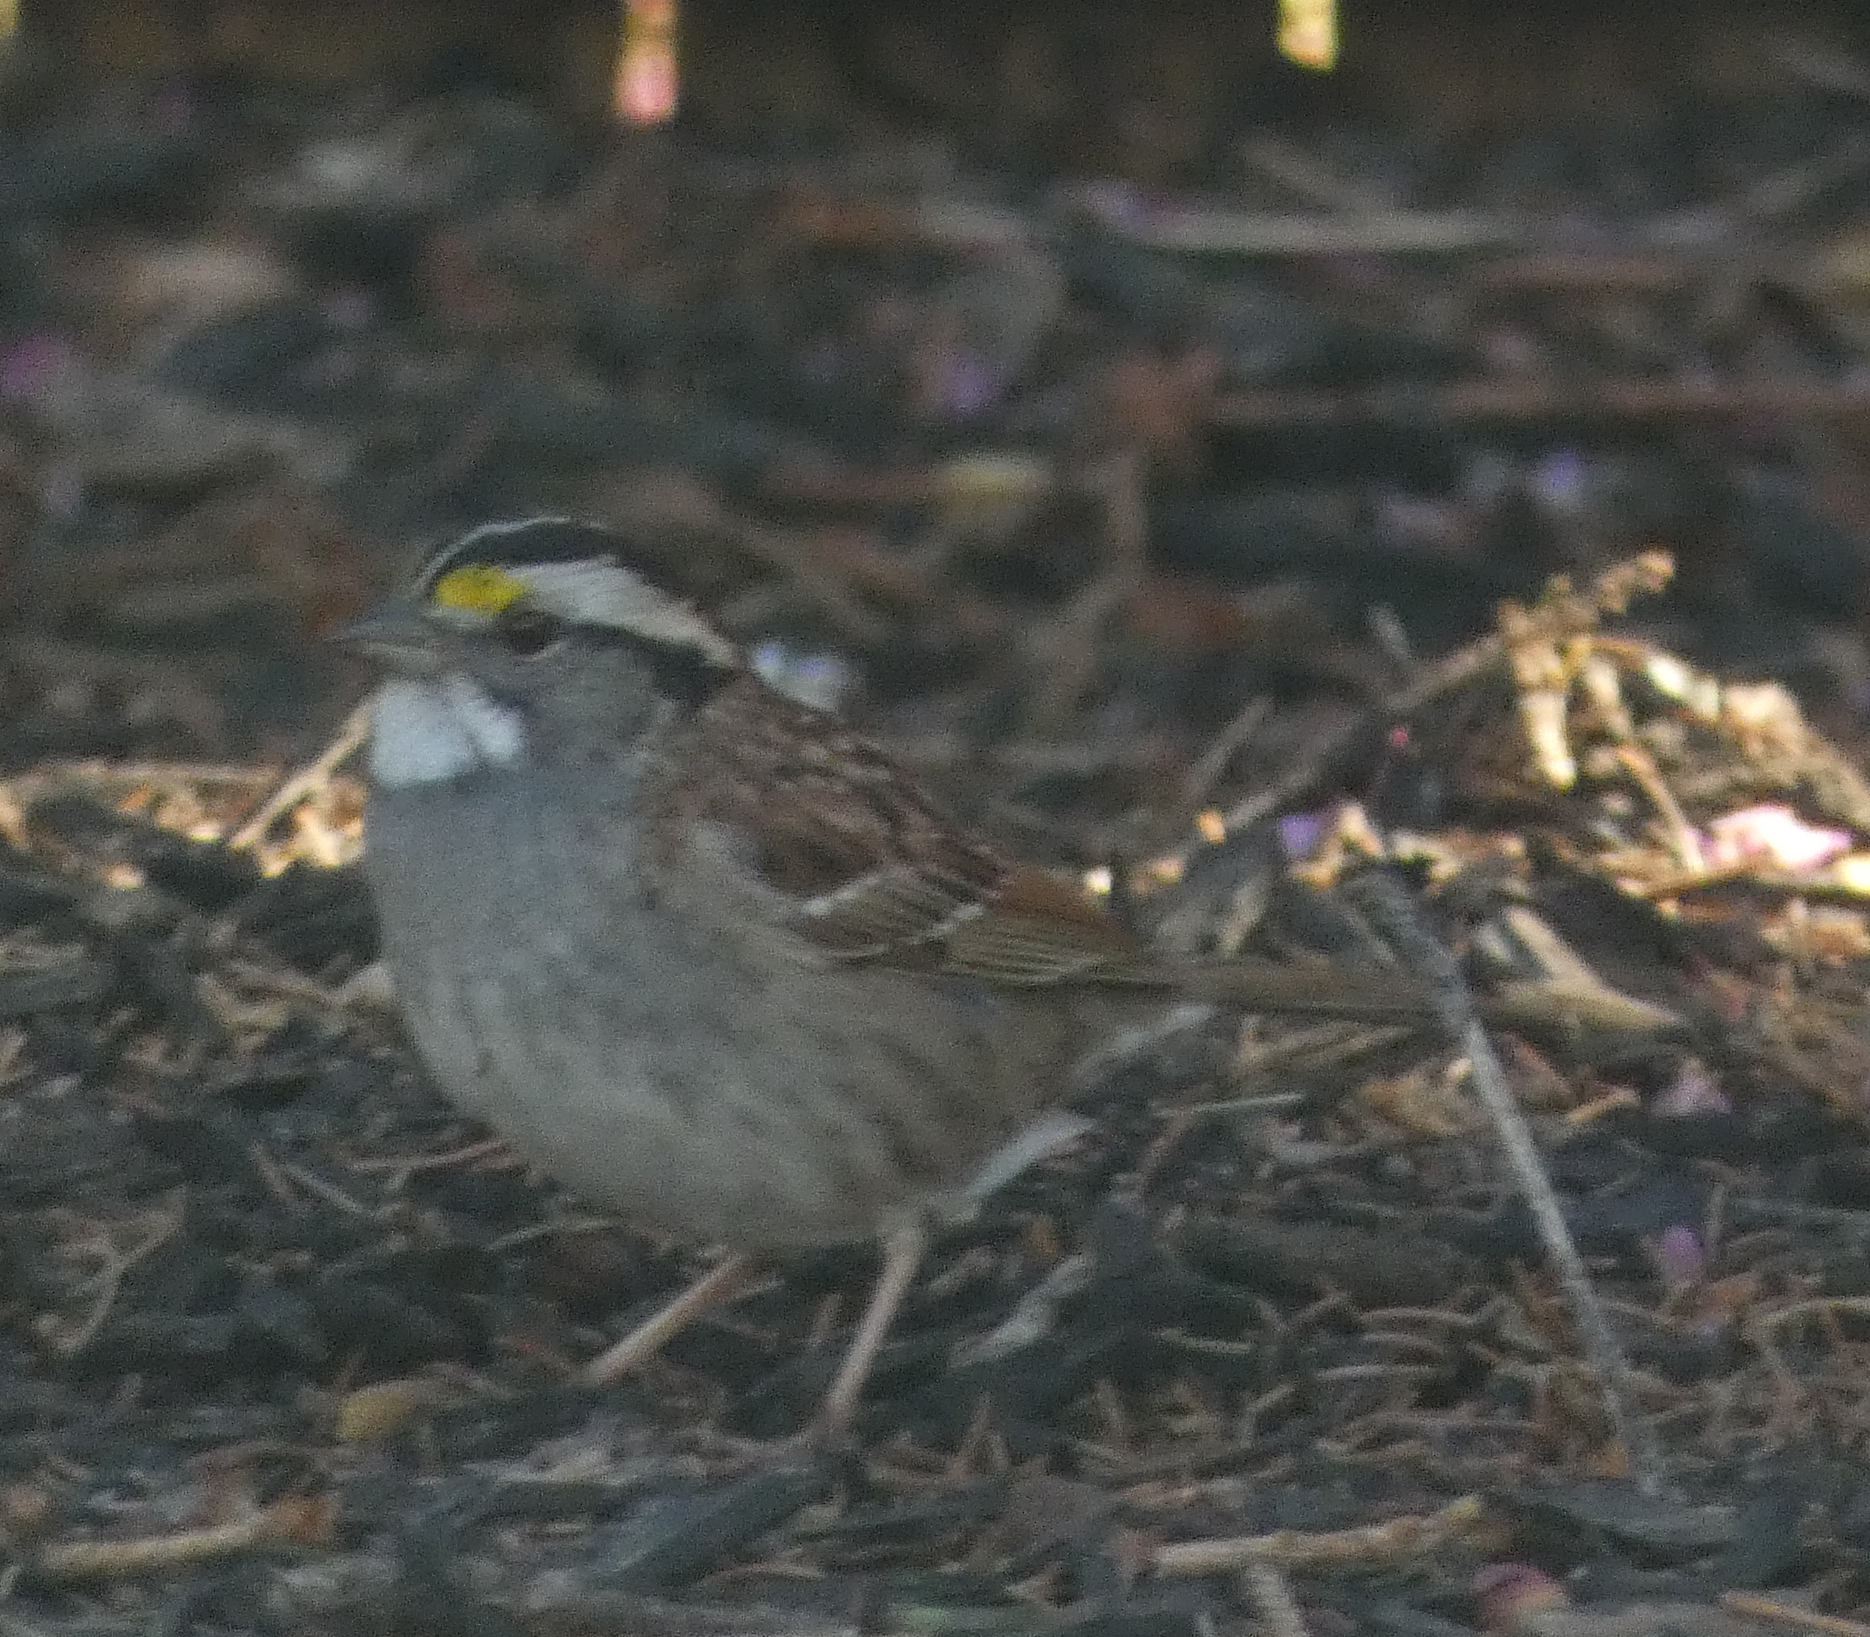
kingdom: Animalia
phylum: Chordata
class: Aves
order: Passeriformes
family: Passerellidae
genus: Zonotrichia
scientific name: Zonotrichia albicollis
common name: White-throated sparrow
